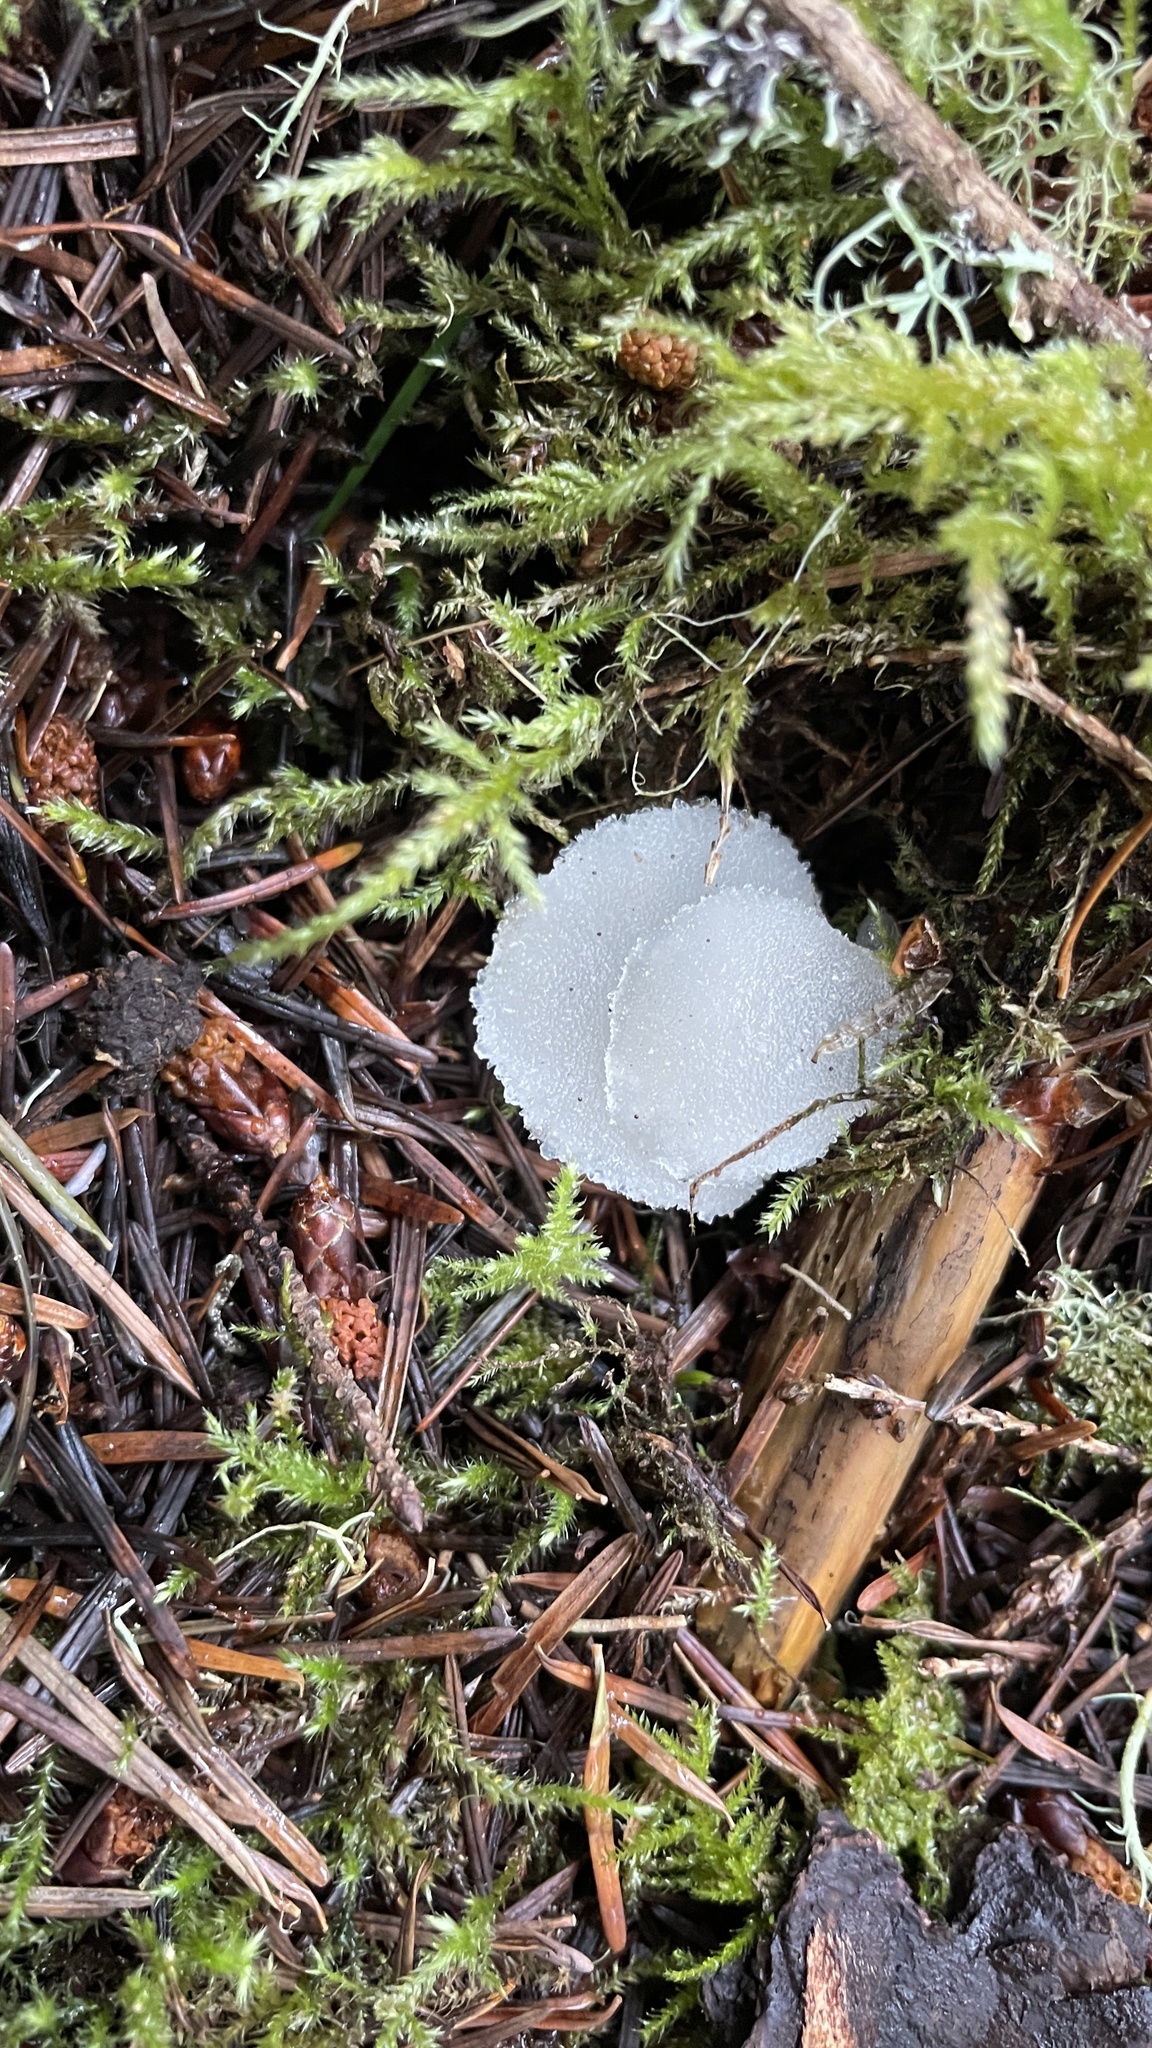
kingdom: Fungi
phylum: Basidiomycota
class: Agaricomycetes
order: Auriculariales
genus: Pseudohydnum
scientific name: Pseudohydnum gelatinosum
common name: Jelly tongue
